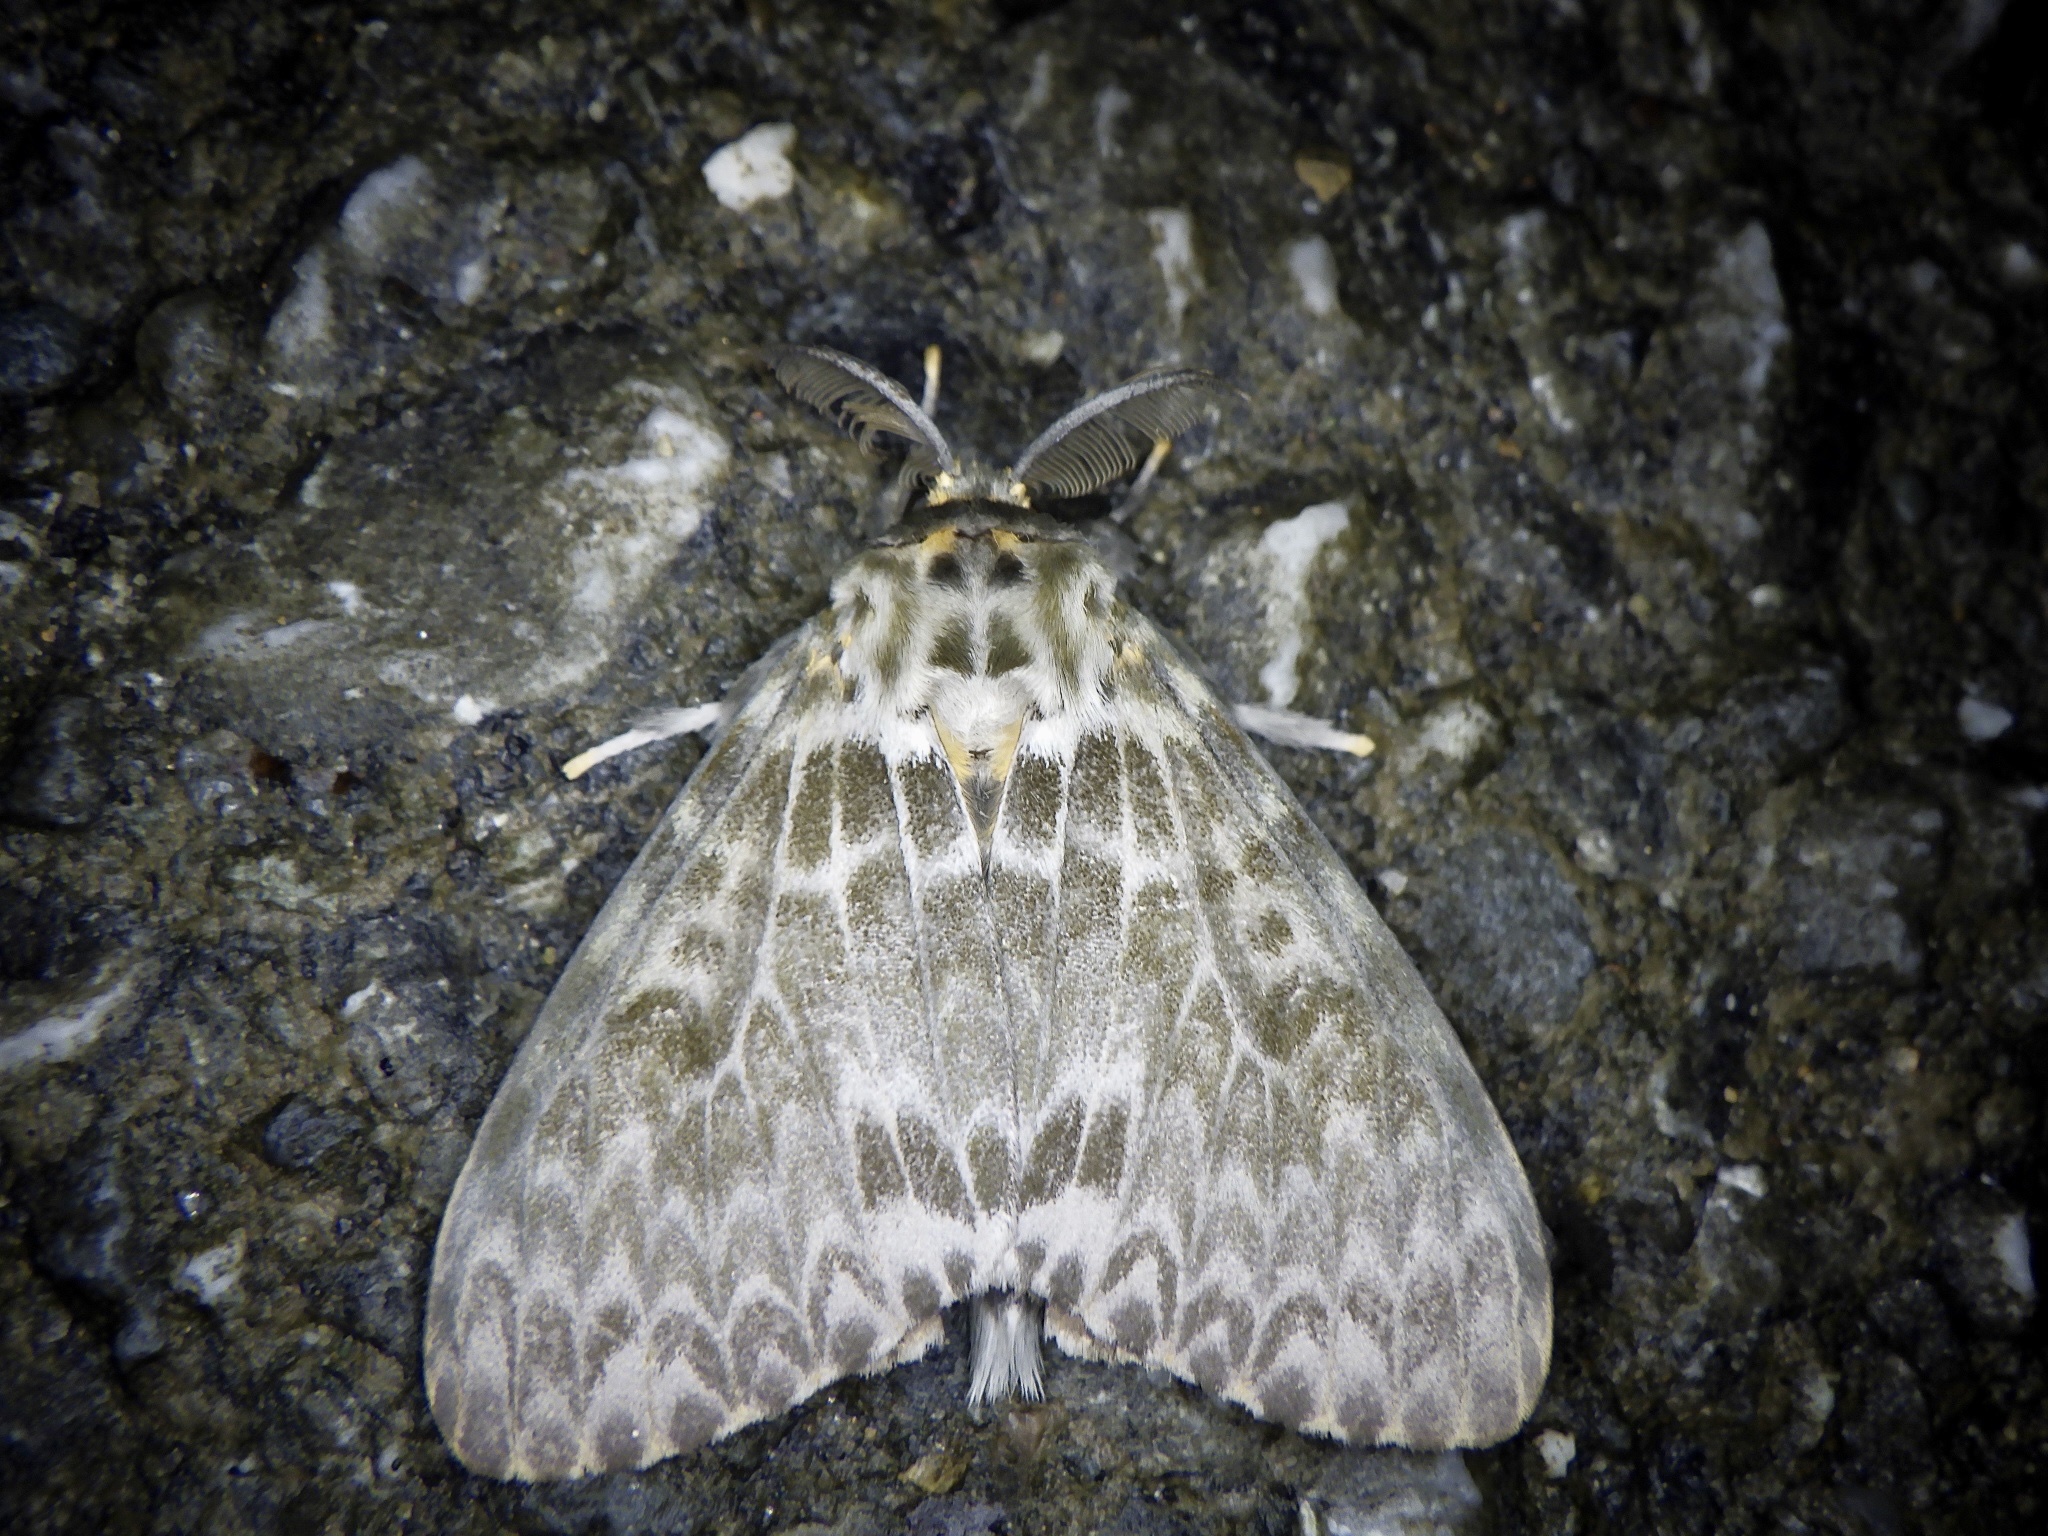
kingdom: Animalia
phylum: Arthropoda
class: Insecta
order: Lepidoptera
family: Erebidae
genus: Lymantria
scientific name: Lymantria mathura
